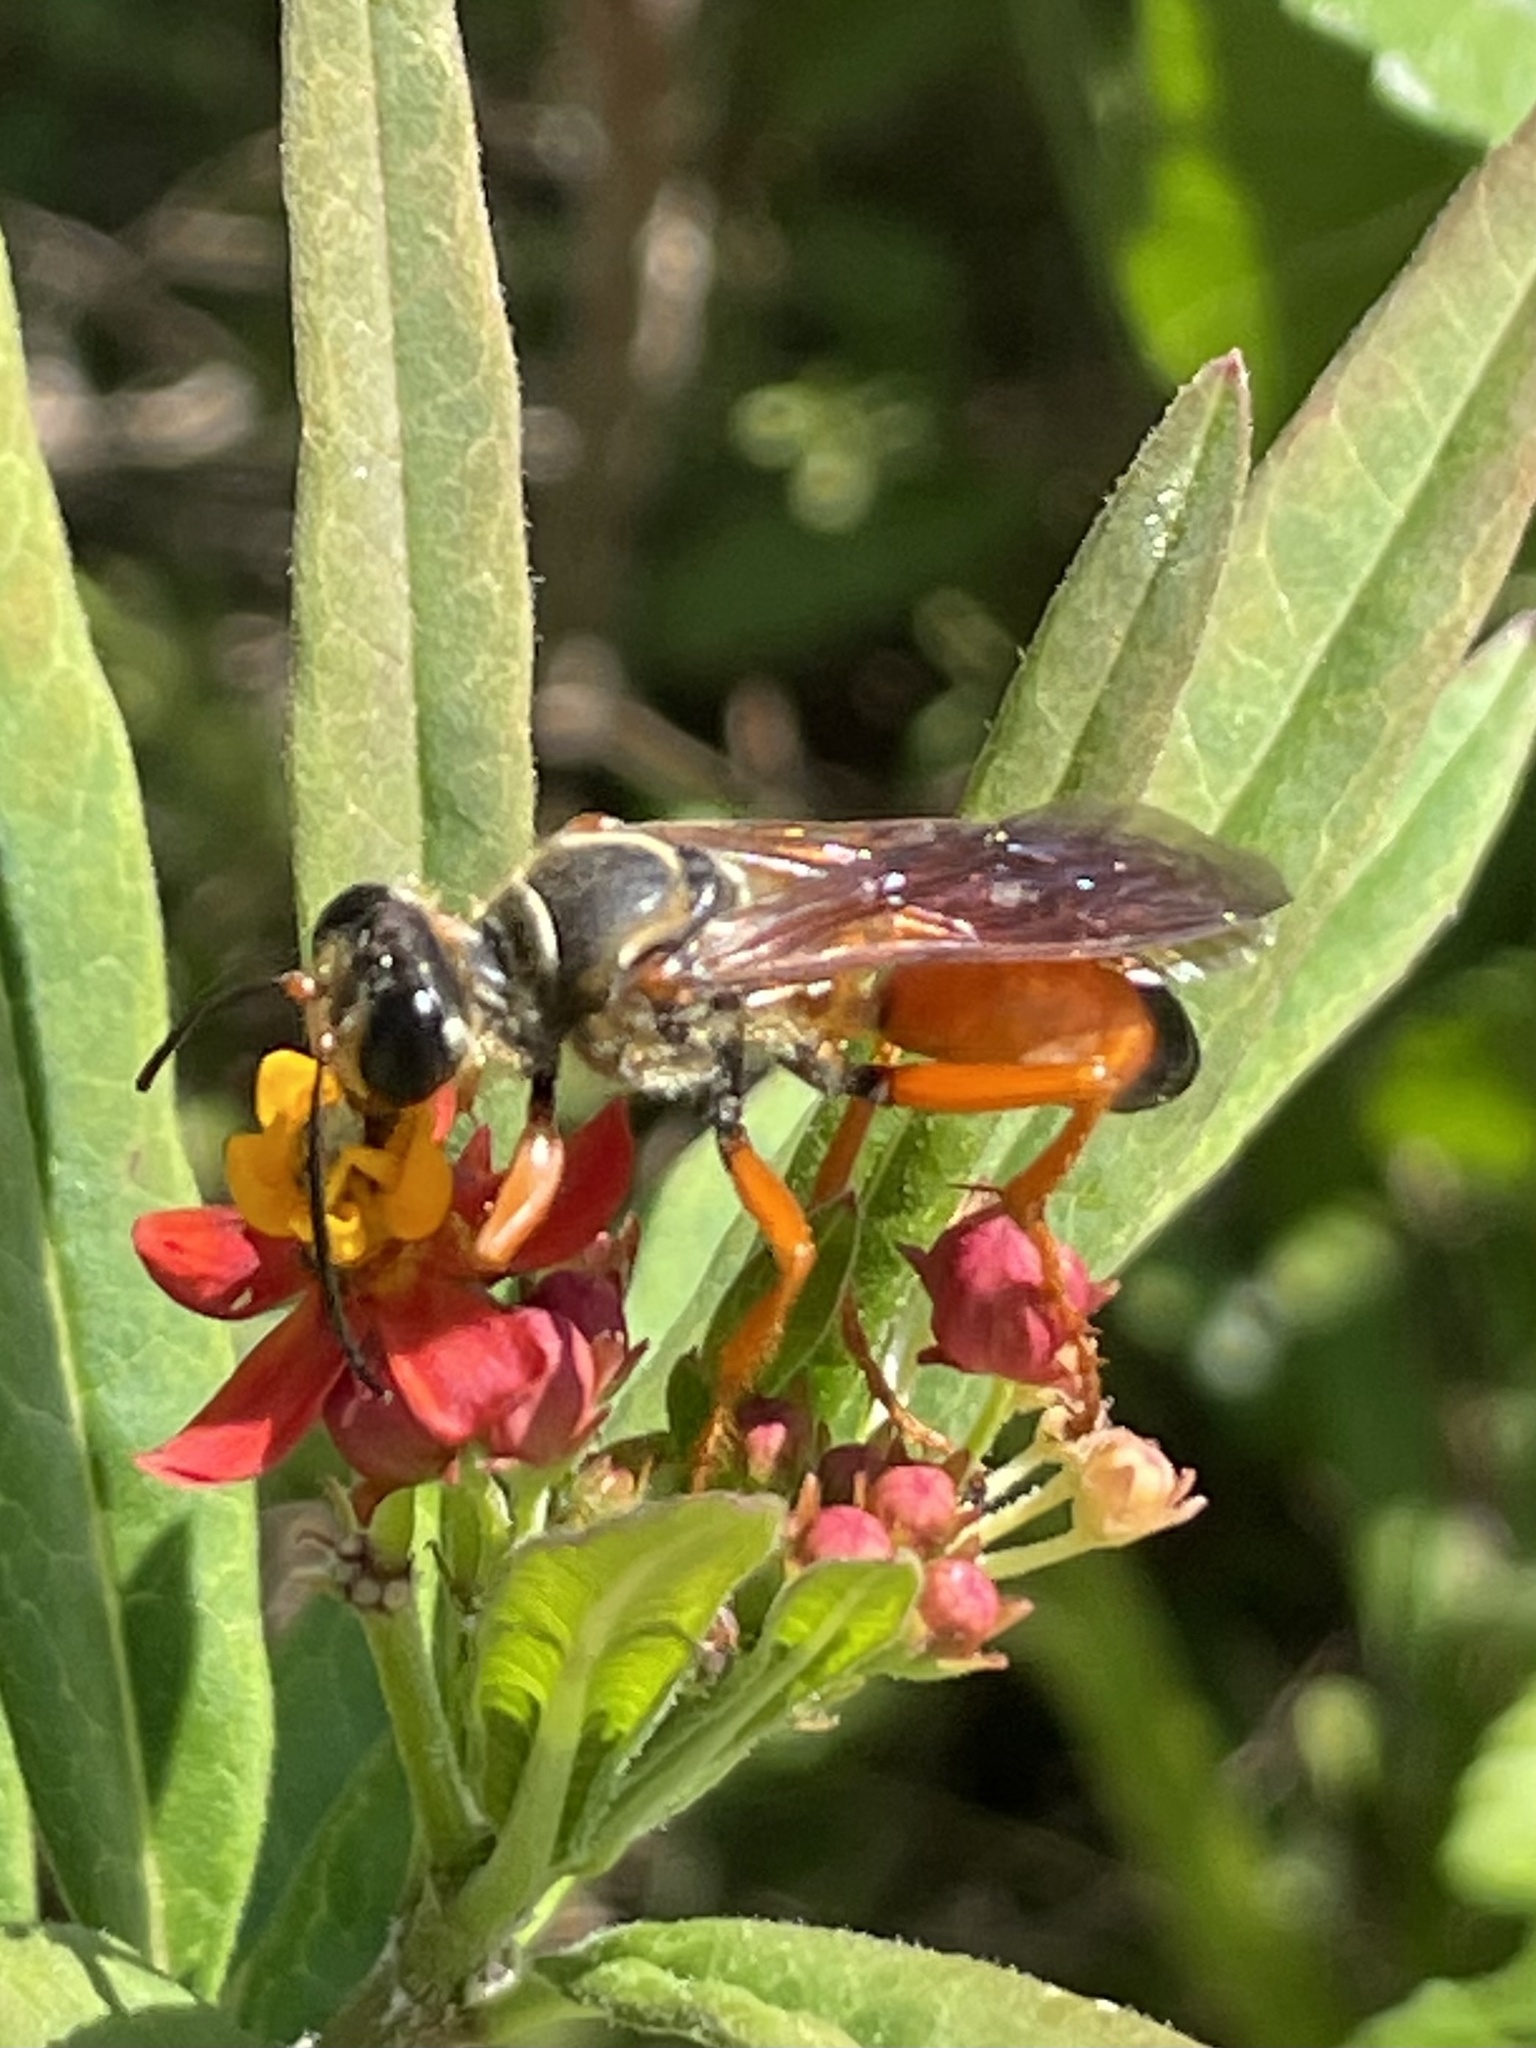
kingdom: Animalia
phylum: Arthropoda
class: Insecta
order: Hymenoptera
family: Sphecidae
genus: Sphex
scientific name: Sphex ichneumoneus
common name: Great golden digger wasp
